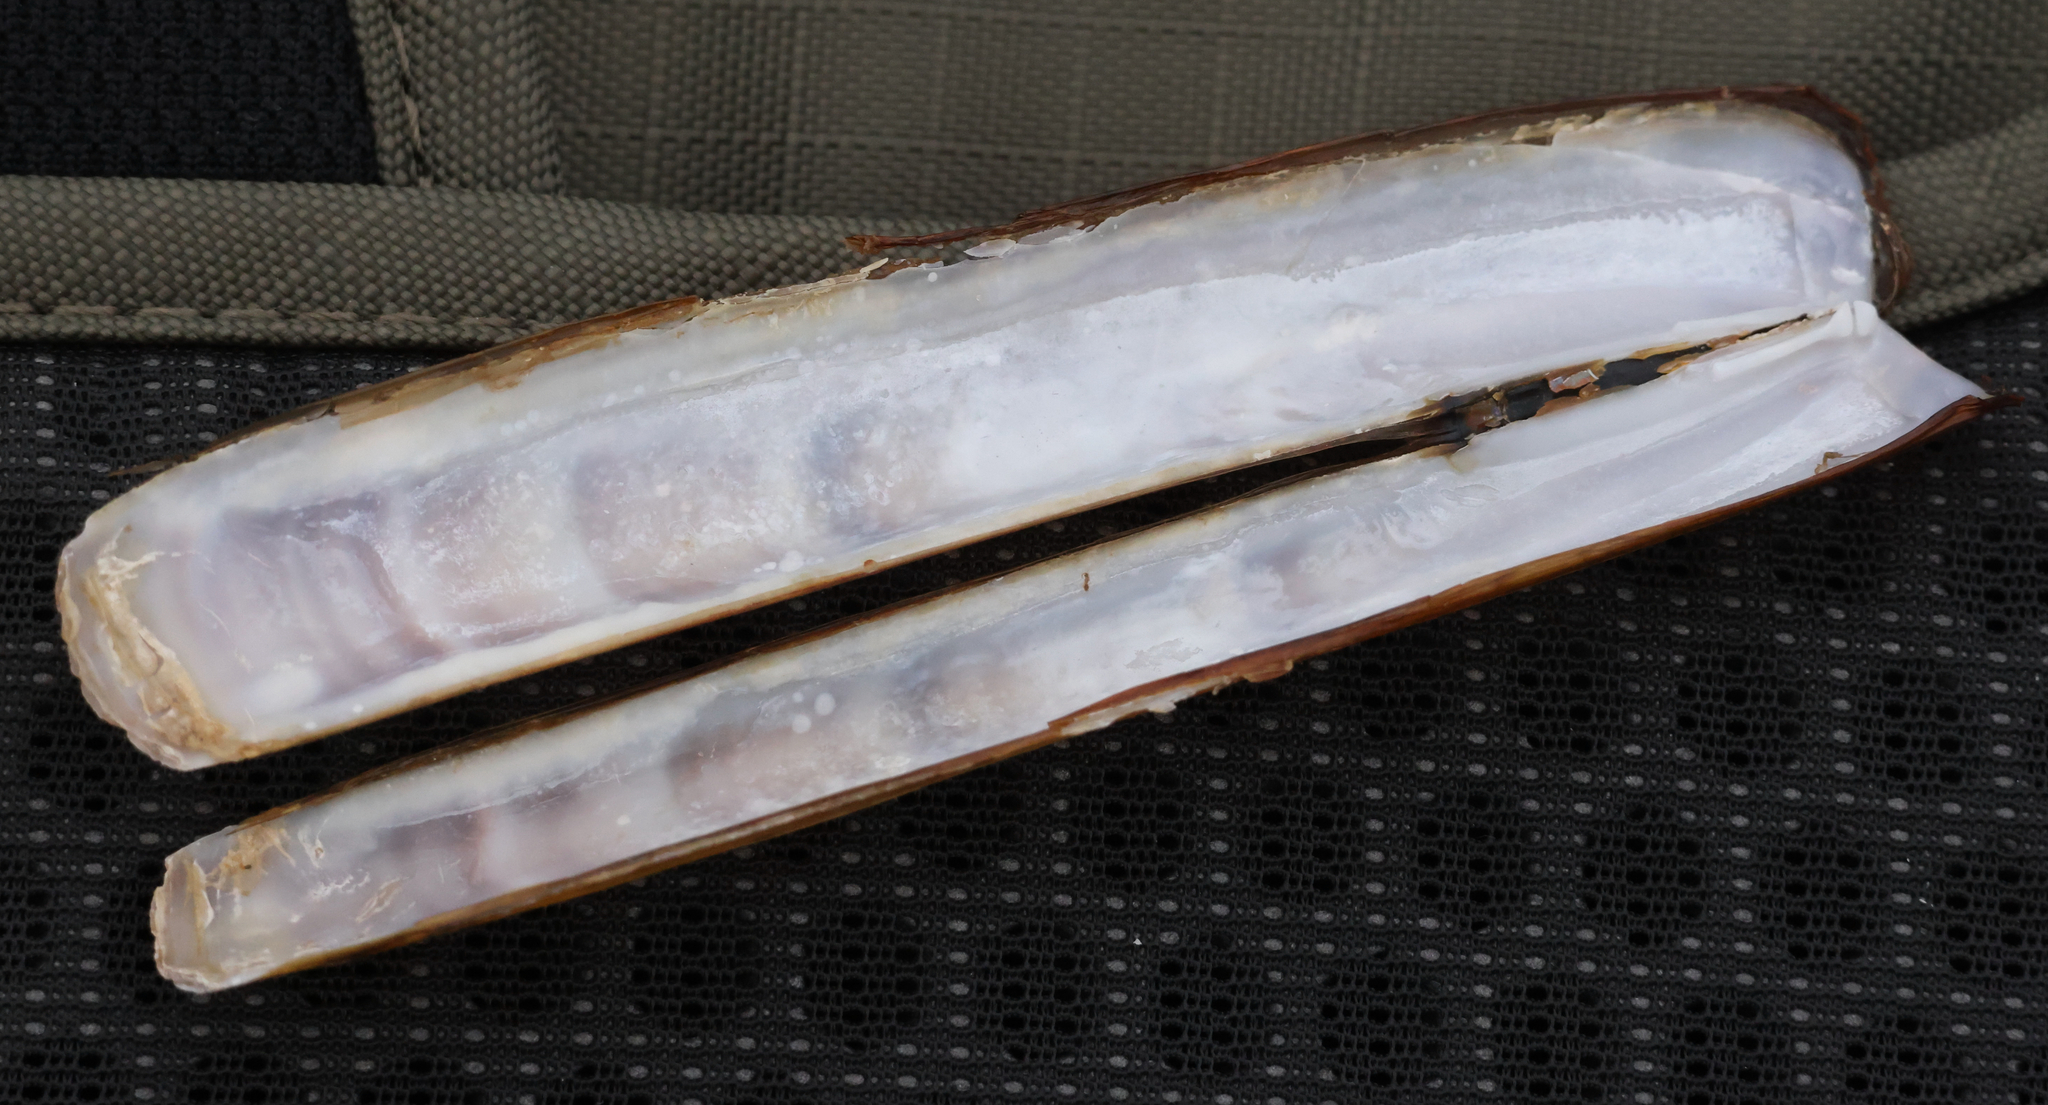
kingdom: Animalia
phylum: Mollusca
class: Bivalvia
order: Adapedonta
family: Pharidae
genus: Ensis
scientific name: Ensis leei
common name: American jack knife clam
